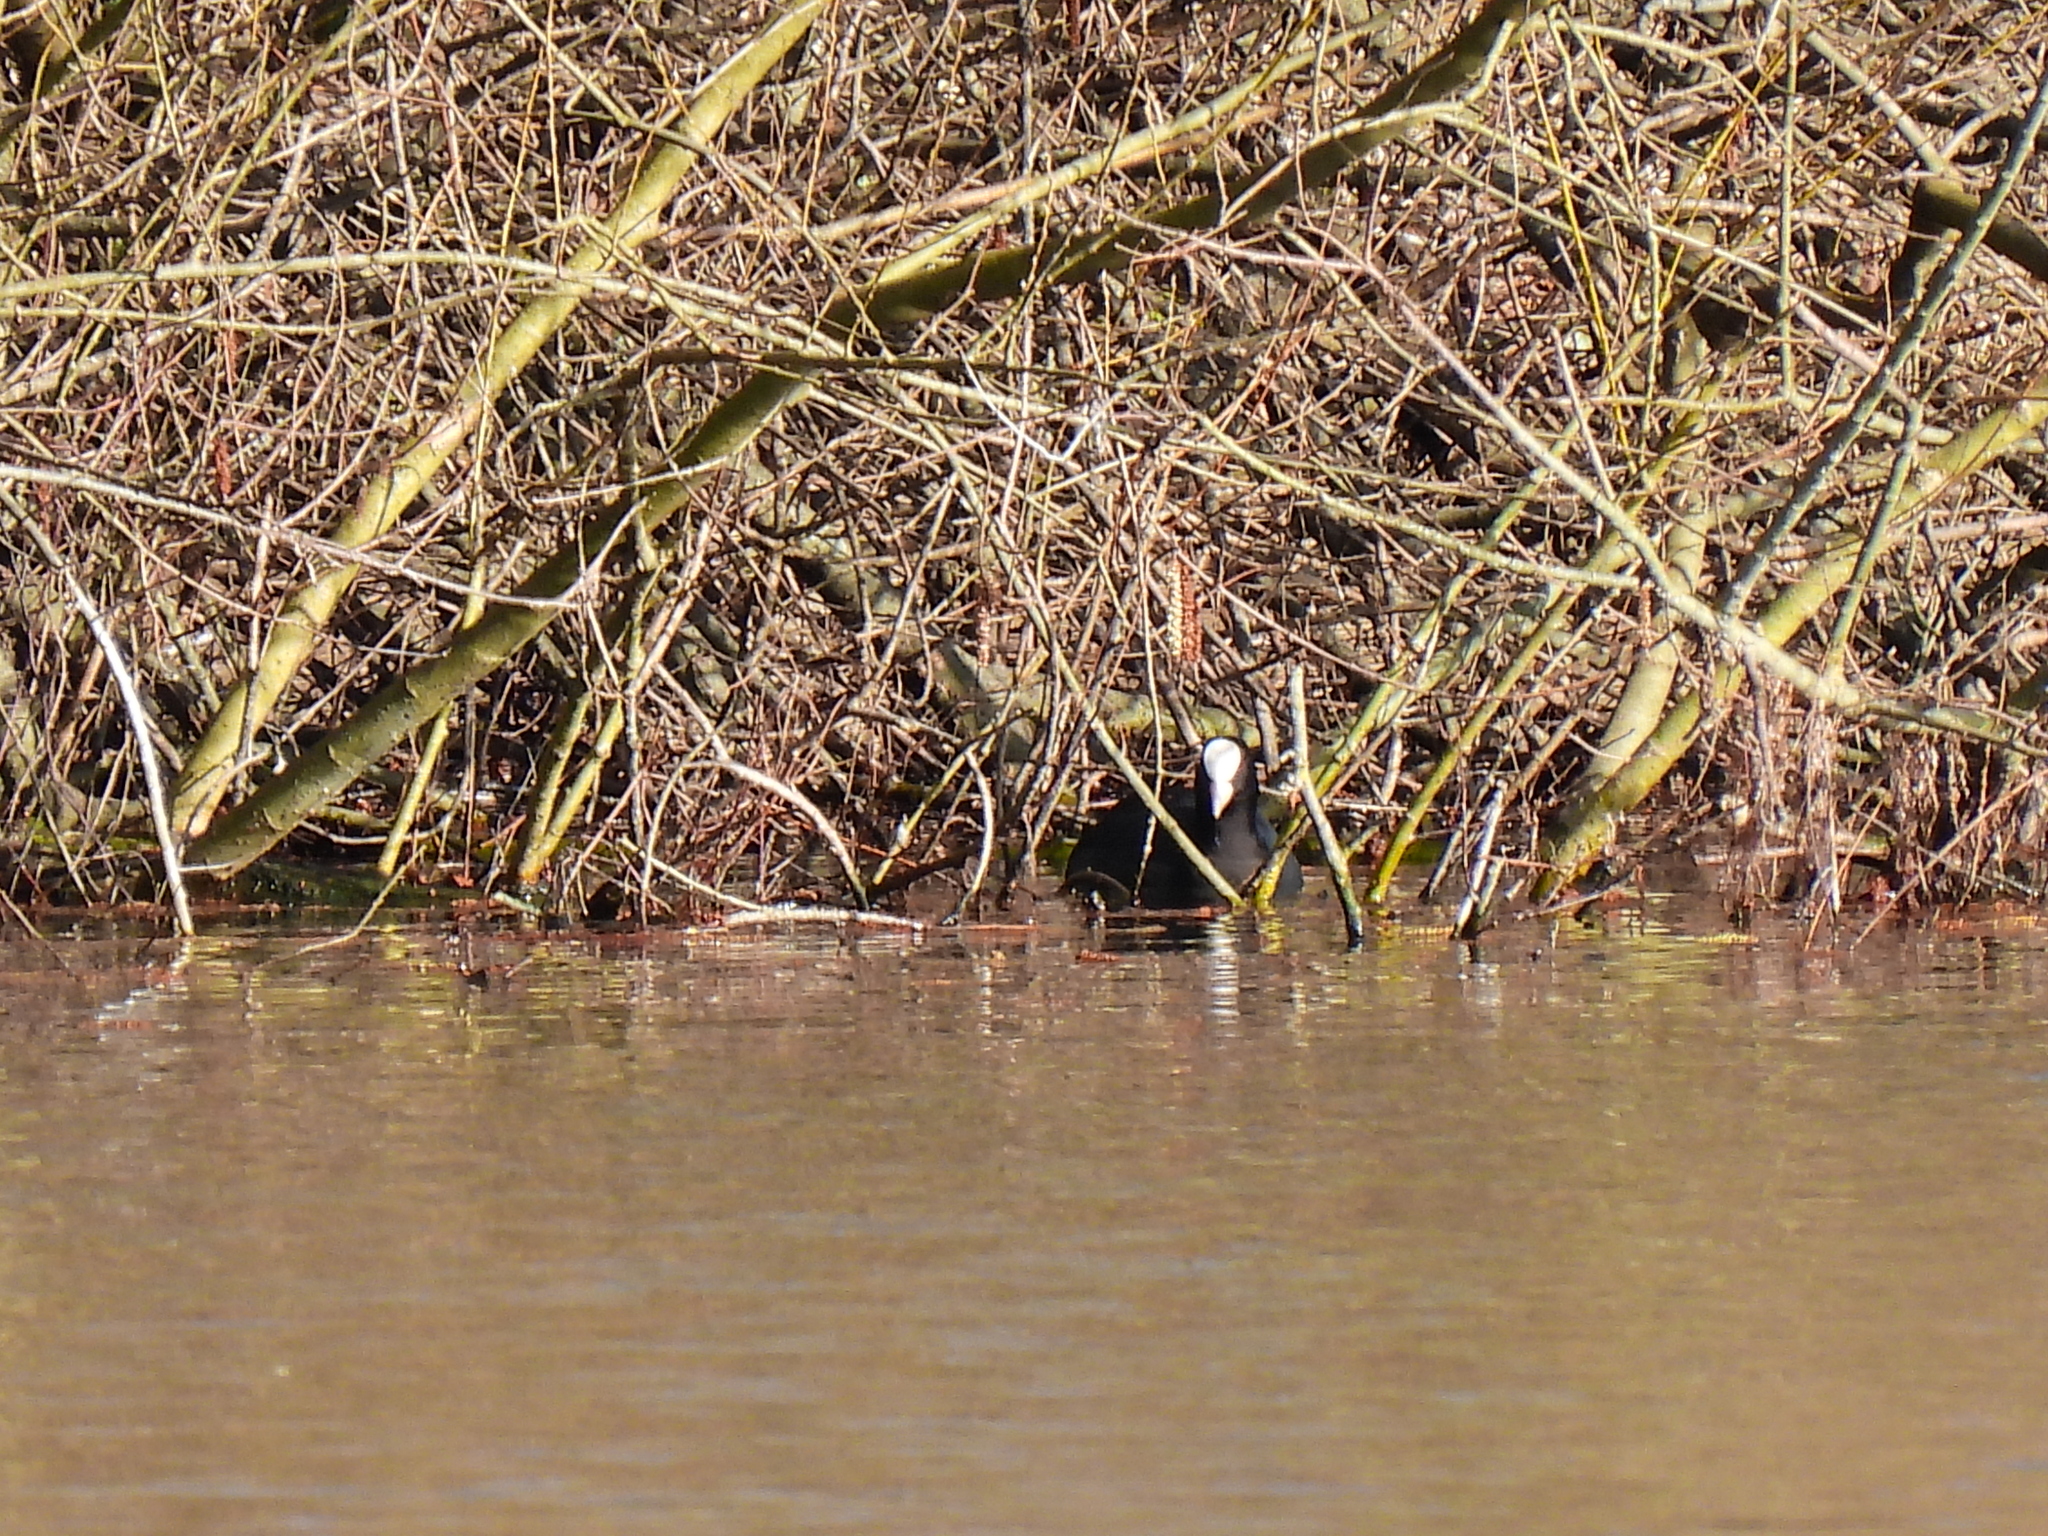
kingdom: Animalia
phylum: Chordata
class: Aves
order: Gruiformes
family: Rallidae
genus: Fulica
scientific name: Fulica atra
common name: Eurasian coot
